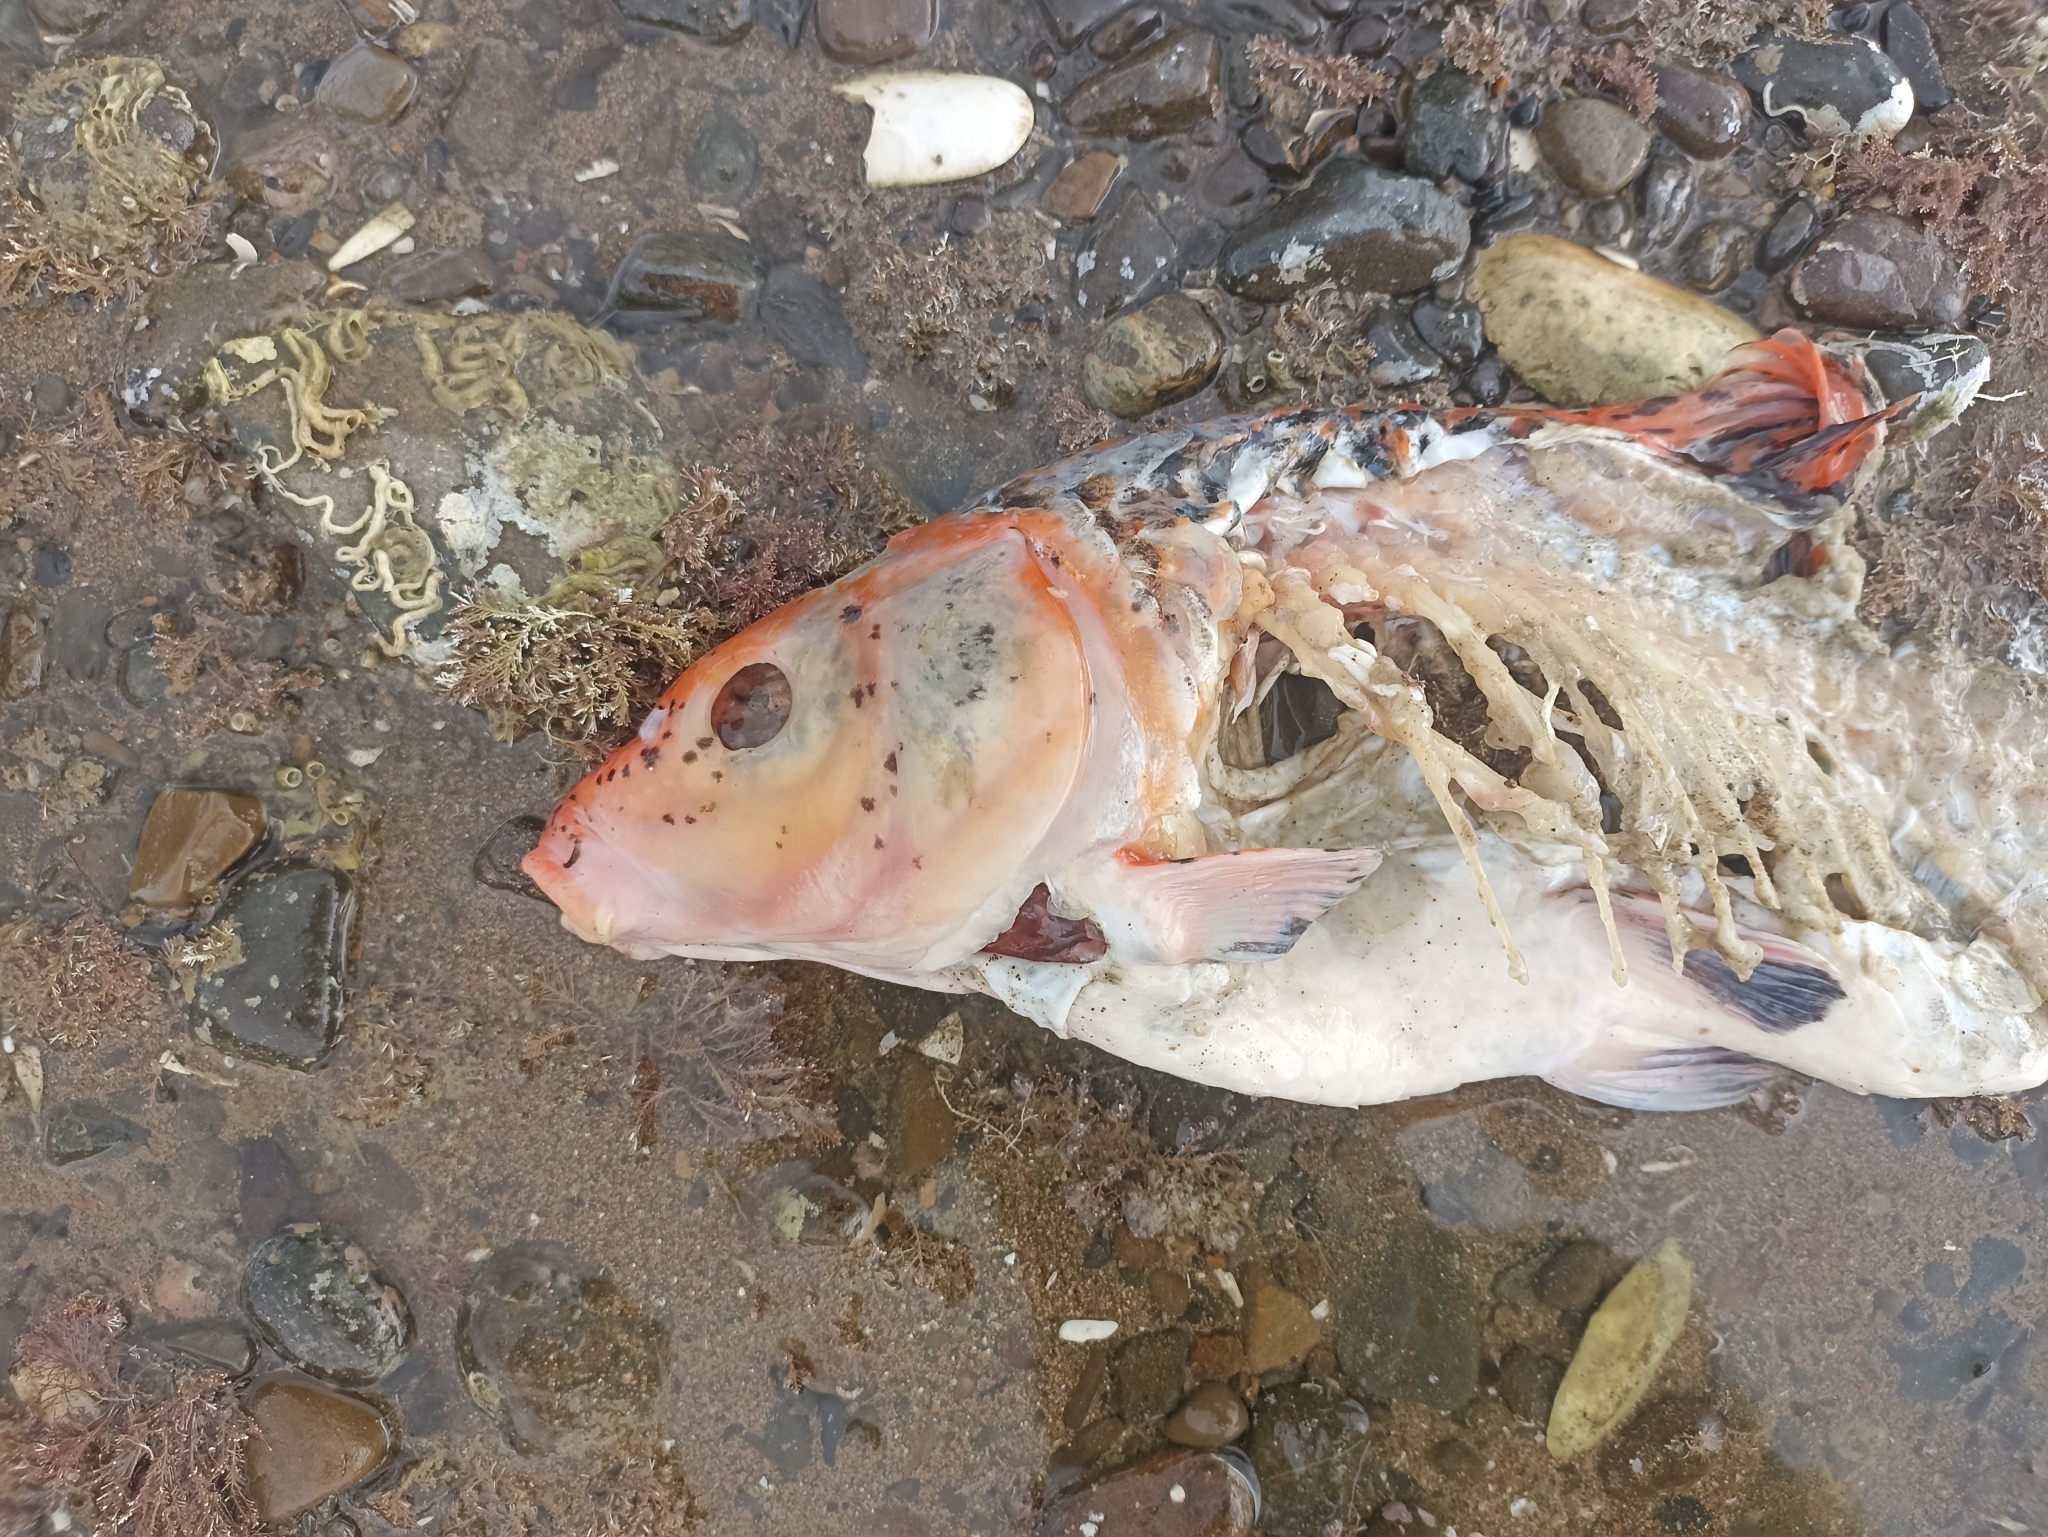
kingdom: Animalia
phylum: Chordata
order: Cypriniformes
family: Cyprinidae
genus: Cyprinus
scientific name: Cyprinus rubrofuscus
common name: Koi
